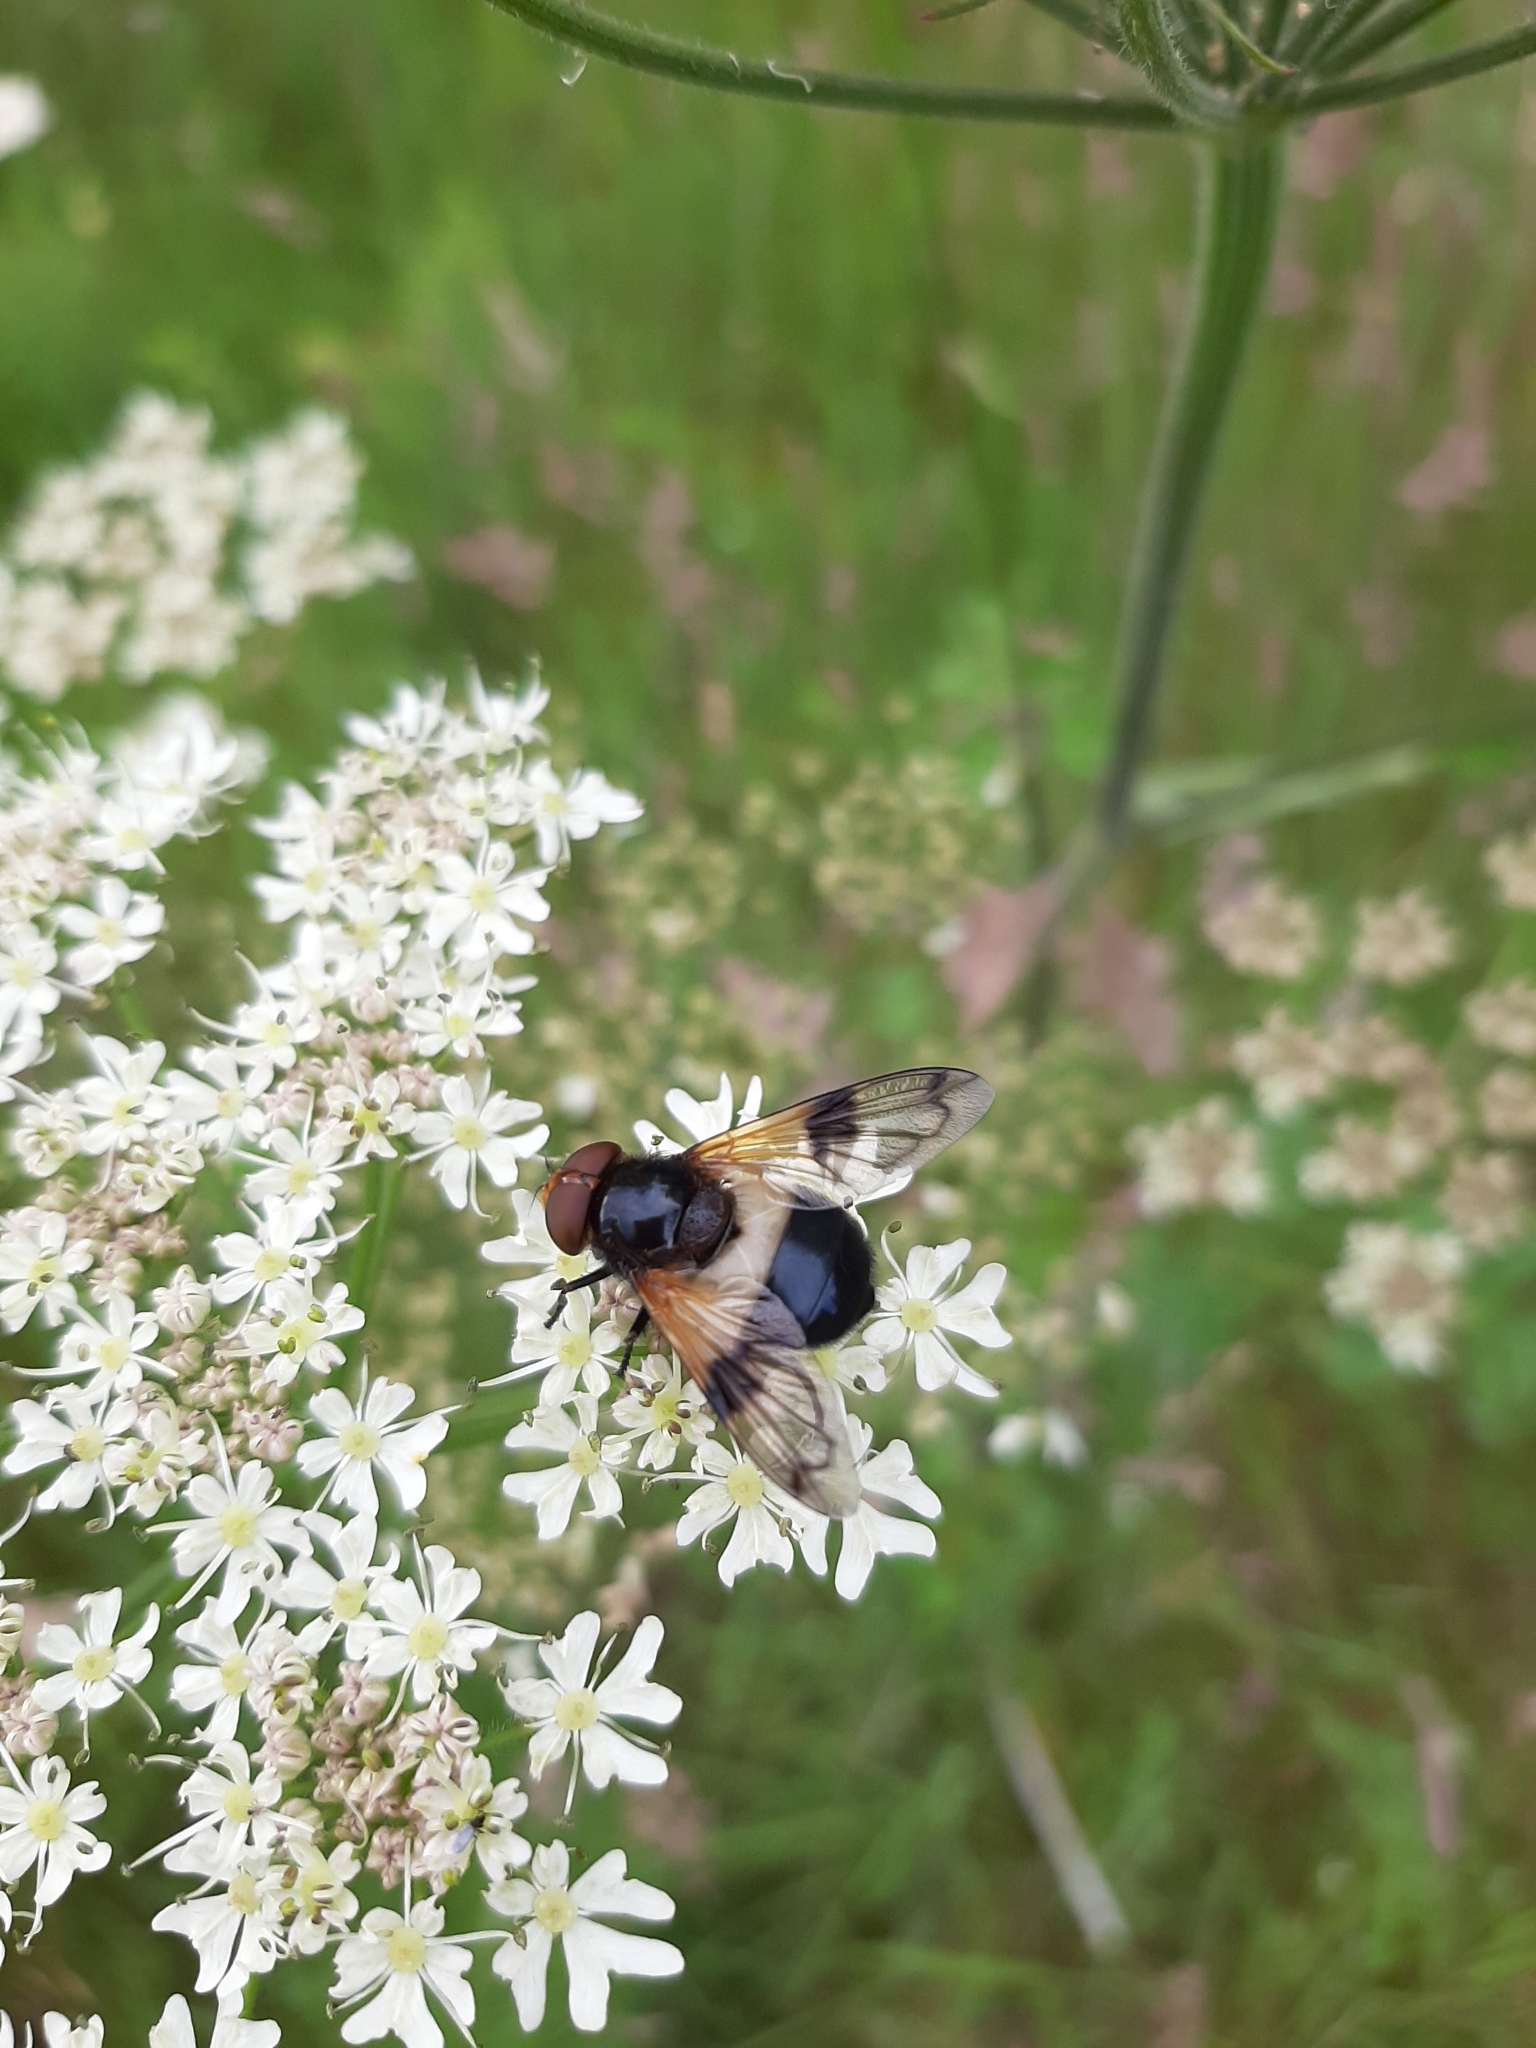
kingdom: Animalia
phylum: Arthropoda
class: Insecta
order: Diptera
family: Syrphidae
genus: Volucella
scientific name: Volucella pellucens
